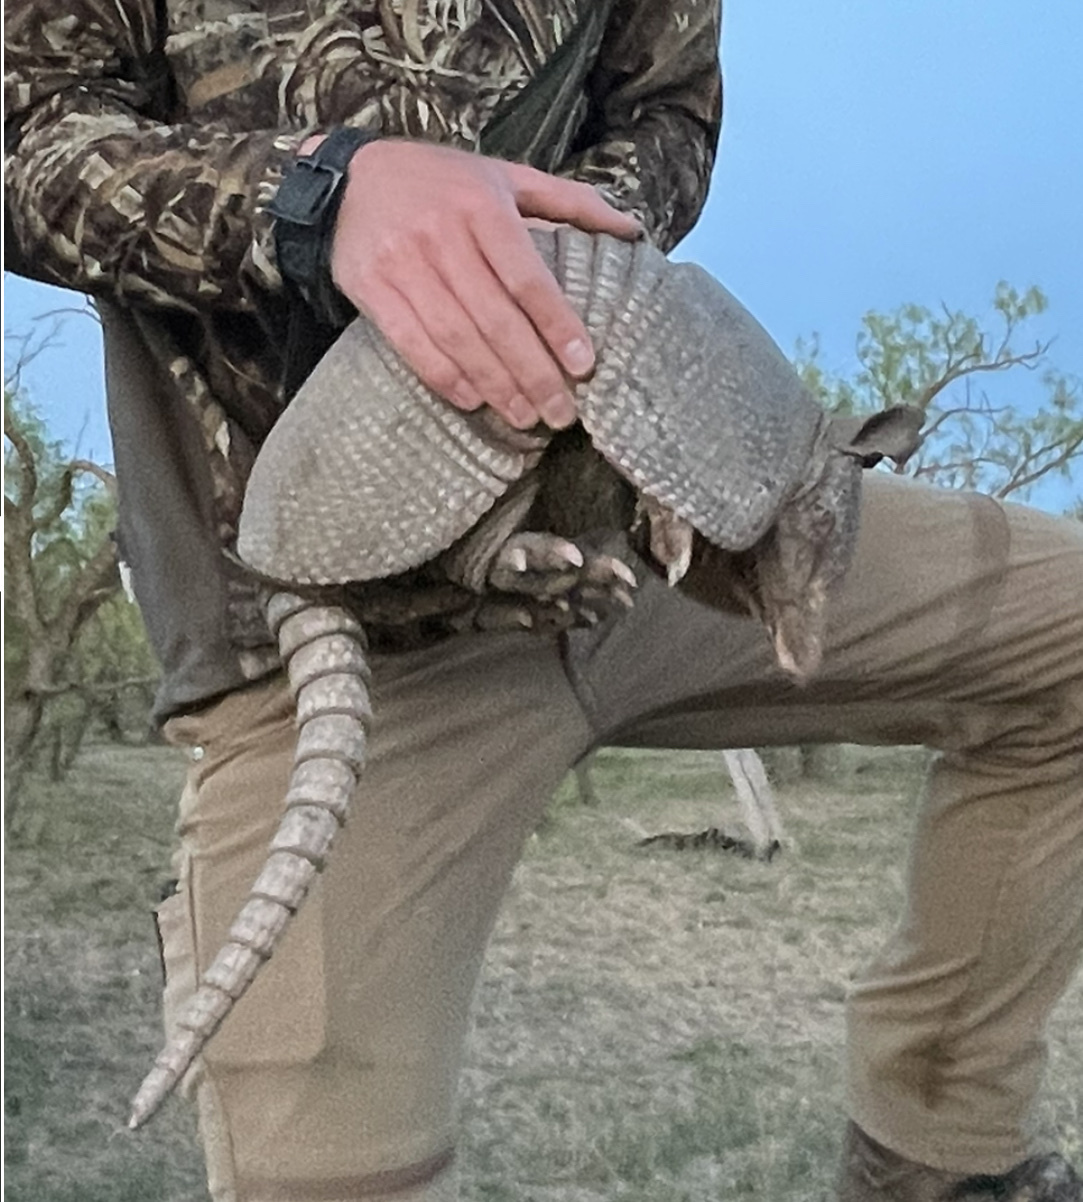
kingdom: Animalia
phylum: Chordata
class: Mammalia
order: Cingulata
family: Dasypodidae
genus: Dasypus
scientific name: Dasypus novemcinctus
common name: Nine-banded armadillo
